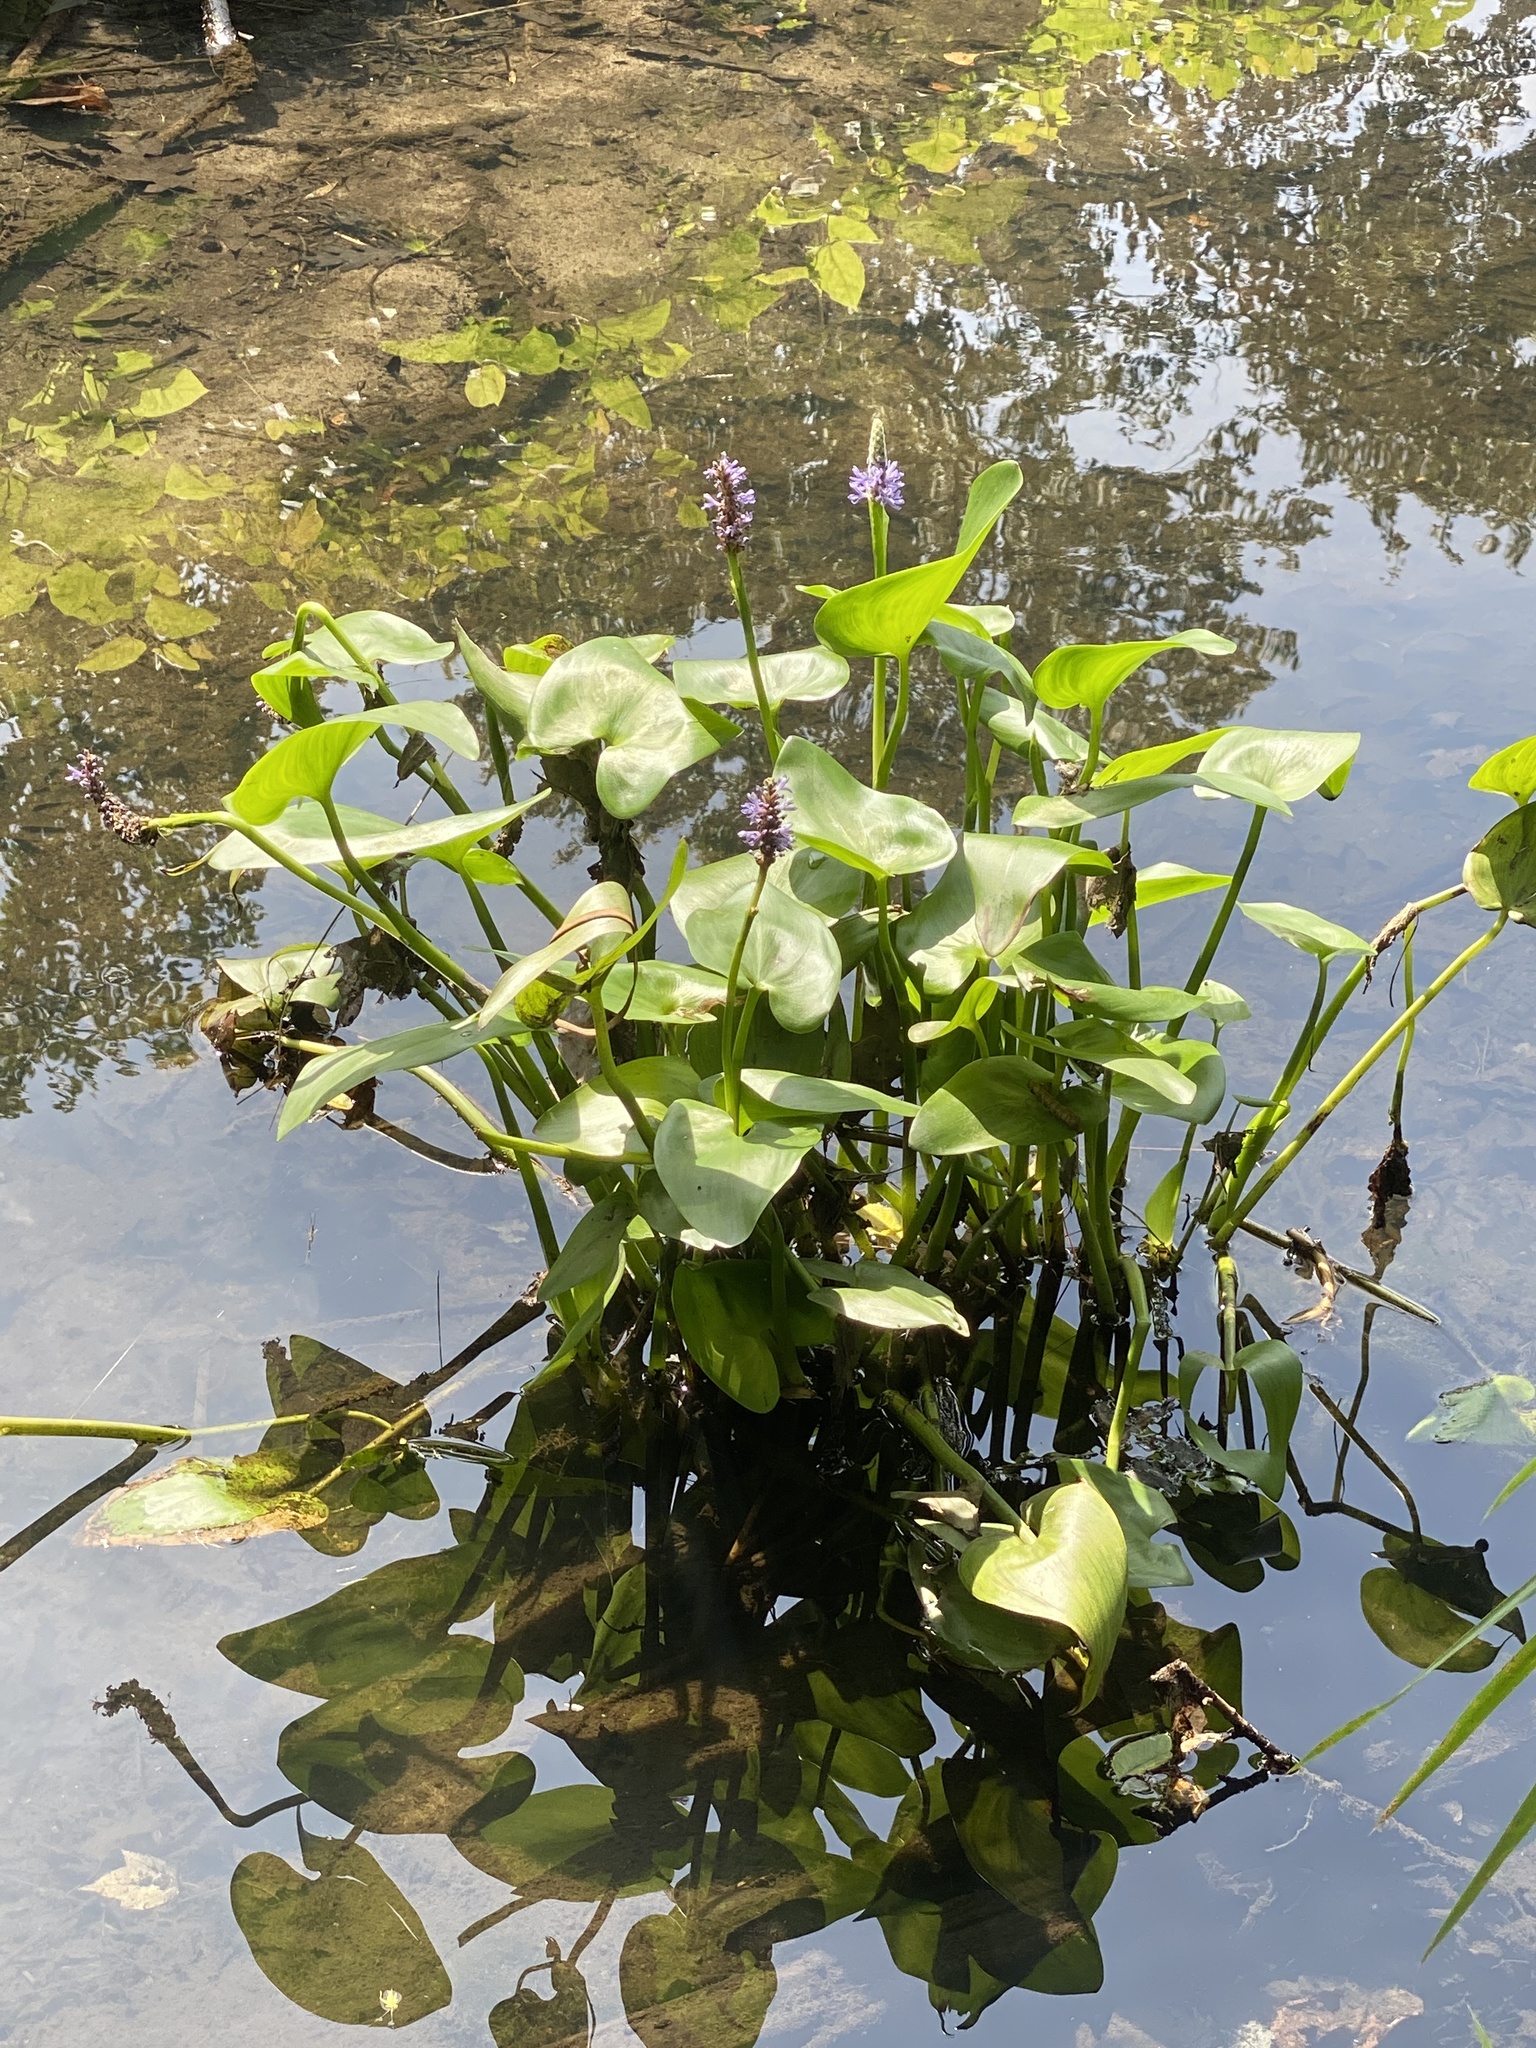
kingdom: Plantae
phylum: Tracheophyta
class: Liliopsida
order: Commelinales
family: Pontederiaceae
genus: Pontederia
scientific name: Pontederia cordata
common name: Pickerelweed
